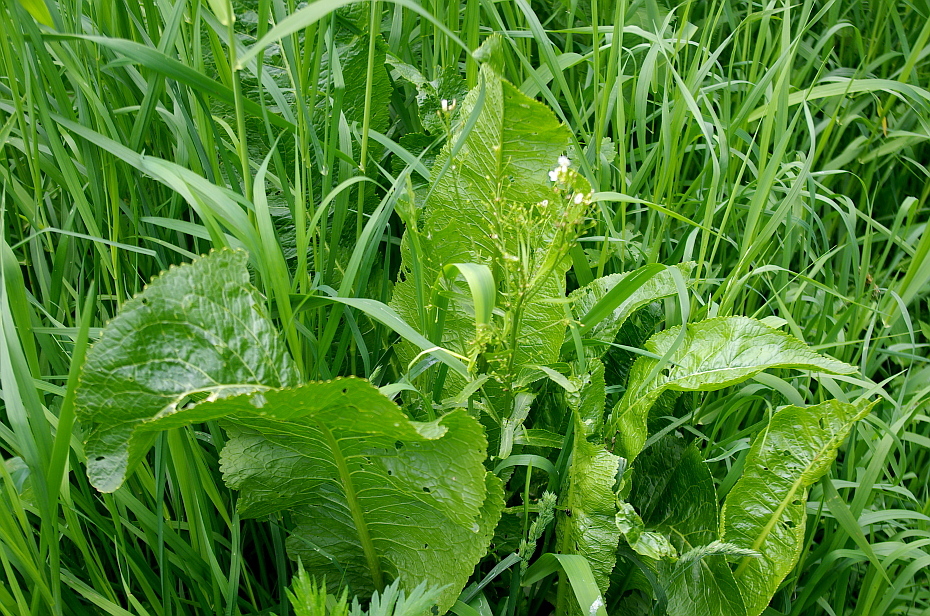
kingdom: Plantae
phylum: Tracheophyta
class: Magnoliopsida
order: Brassicales
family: Brassicaceae
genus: Armoracia
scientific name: Armoracia rusticana
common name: Horseradish
